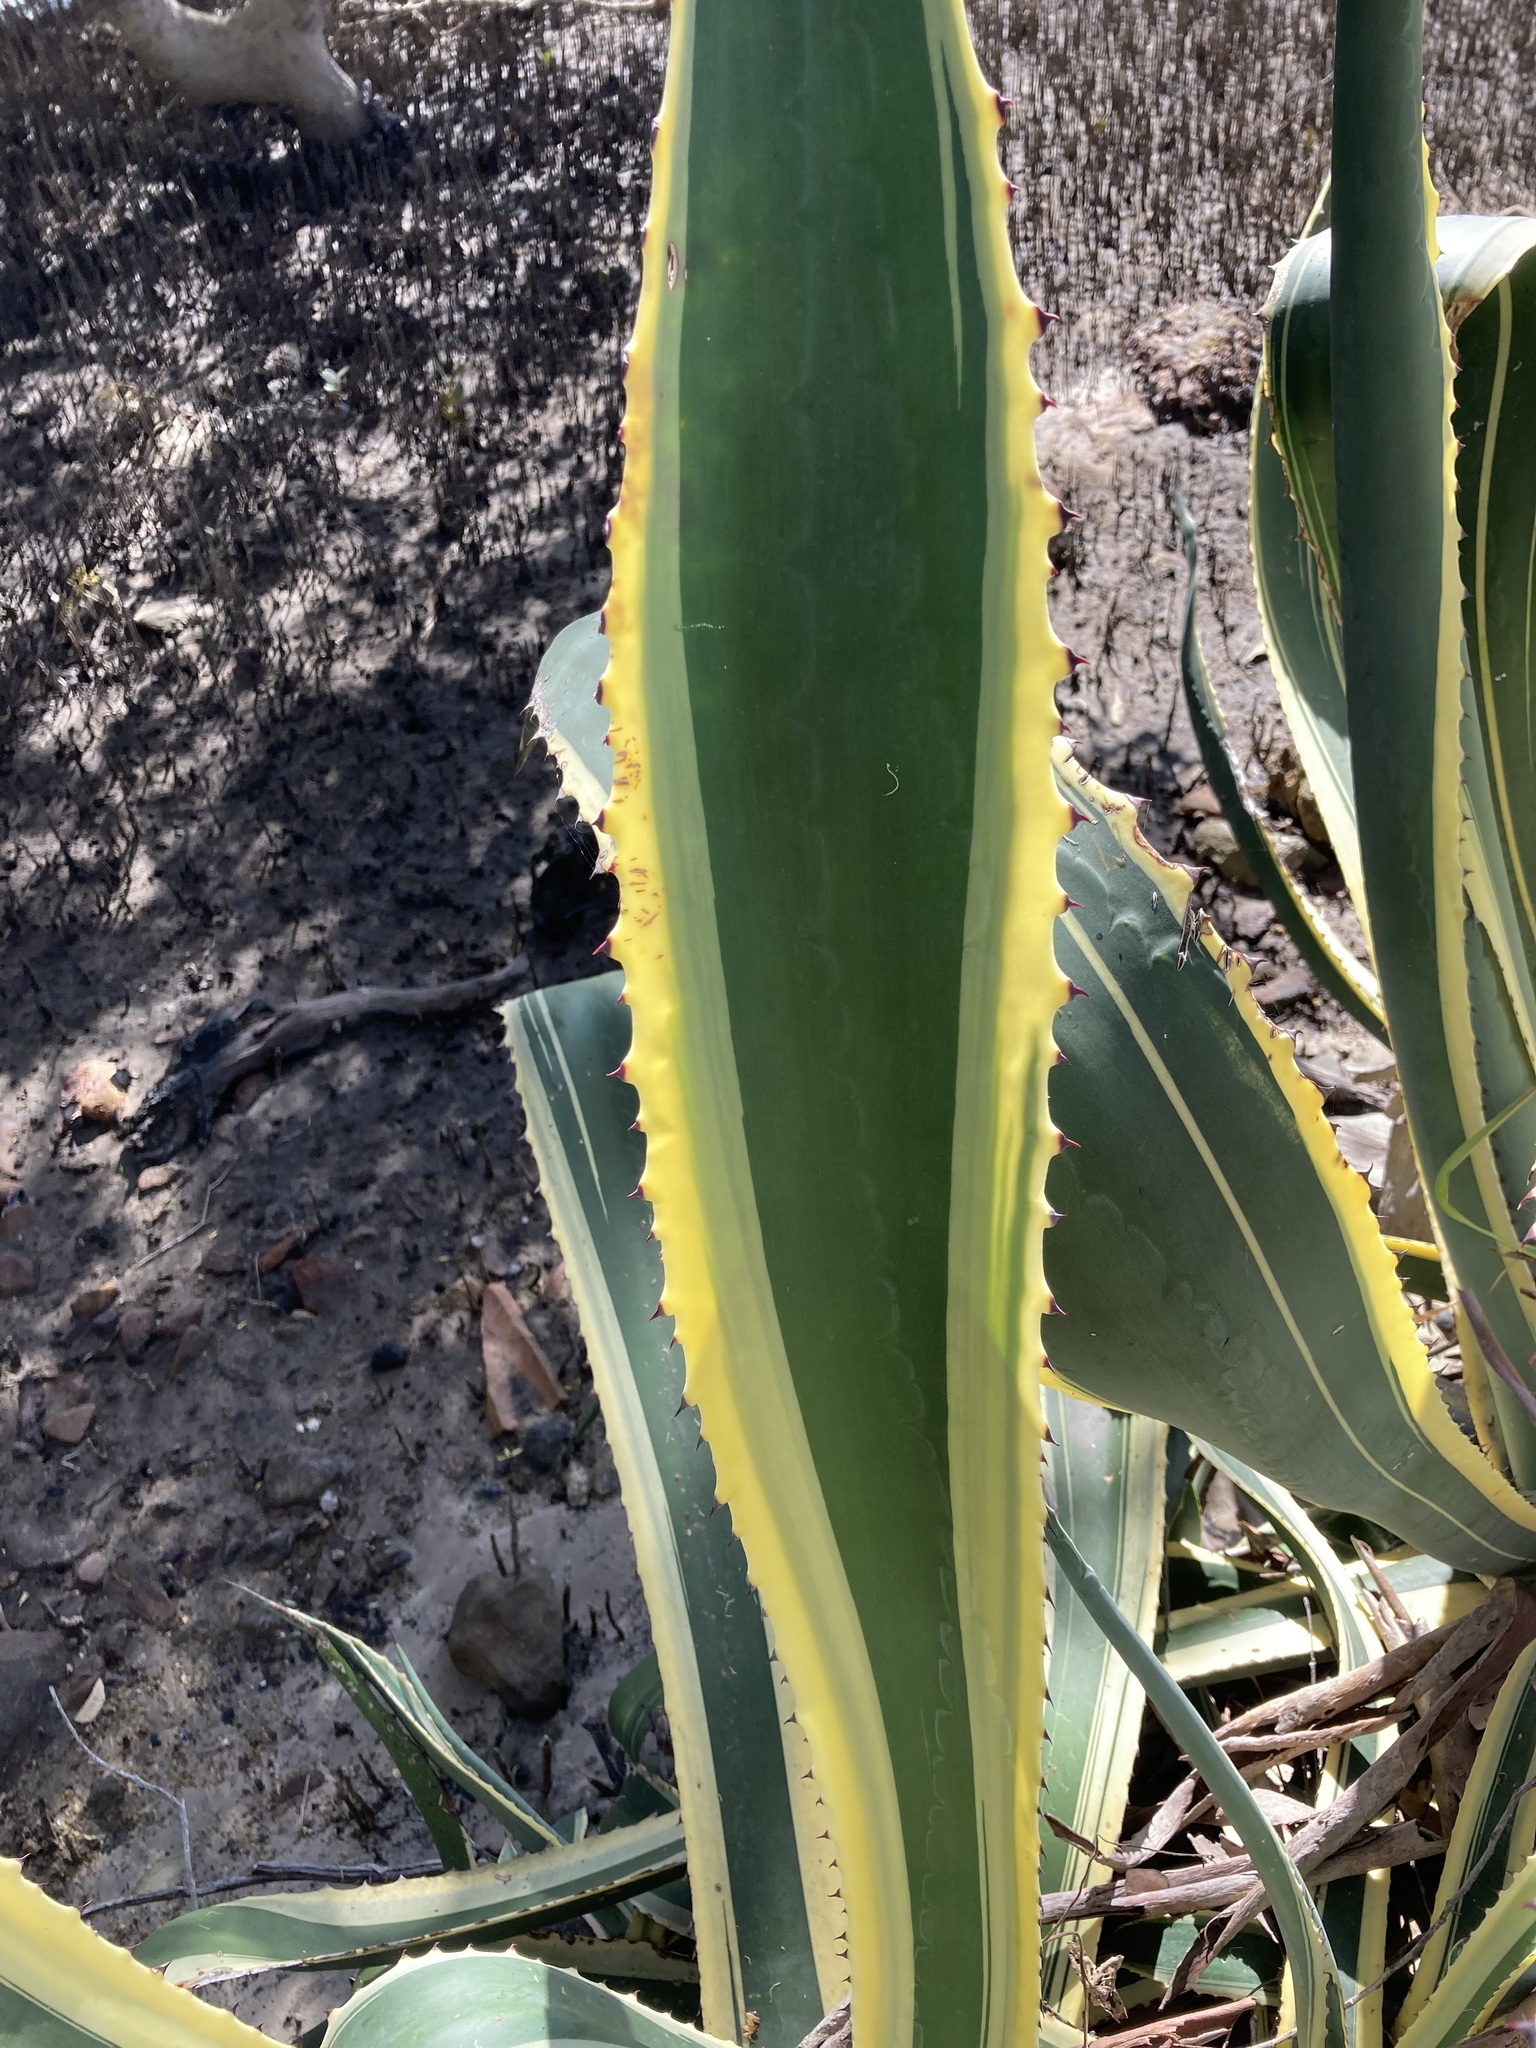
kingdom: Plantae
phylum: Tracheophyta
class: Liliopsida
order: Asparagales
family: Asparagaceae
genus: Agave
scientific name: Agave americana
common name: Centuryplant
